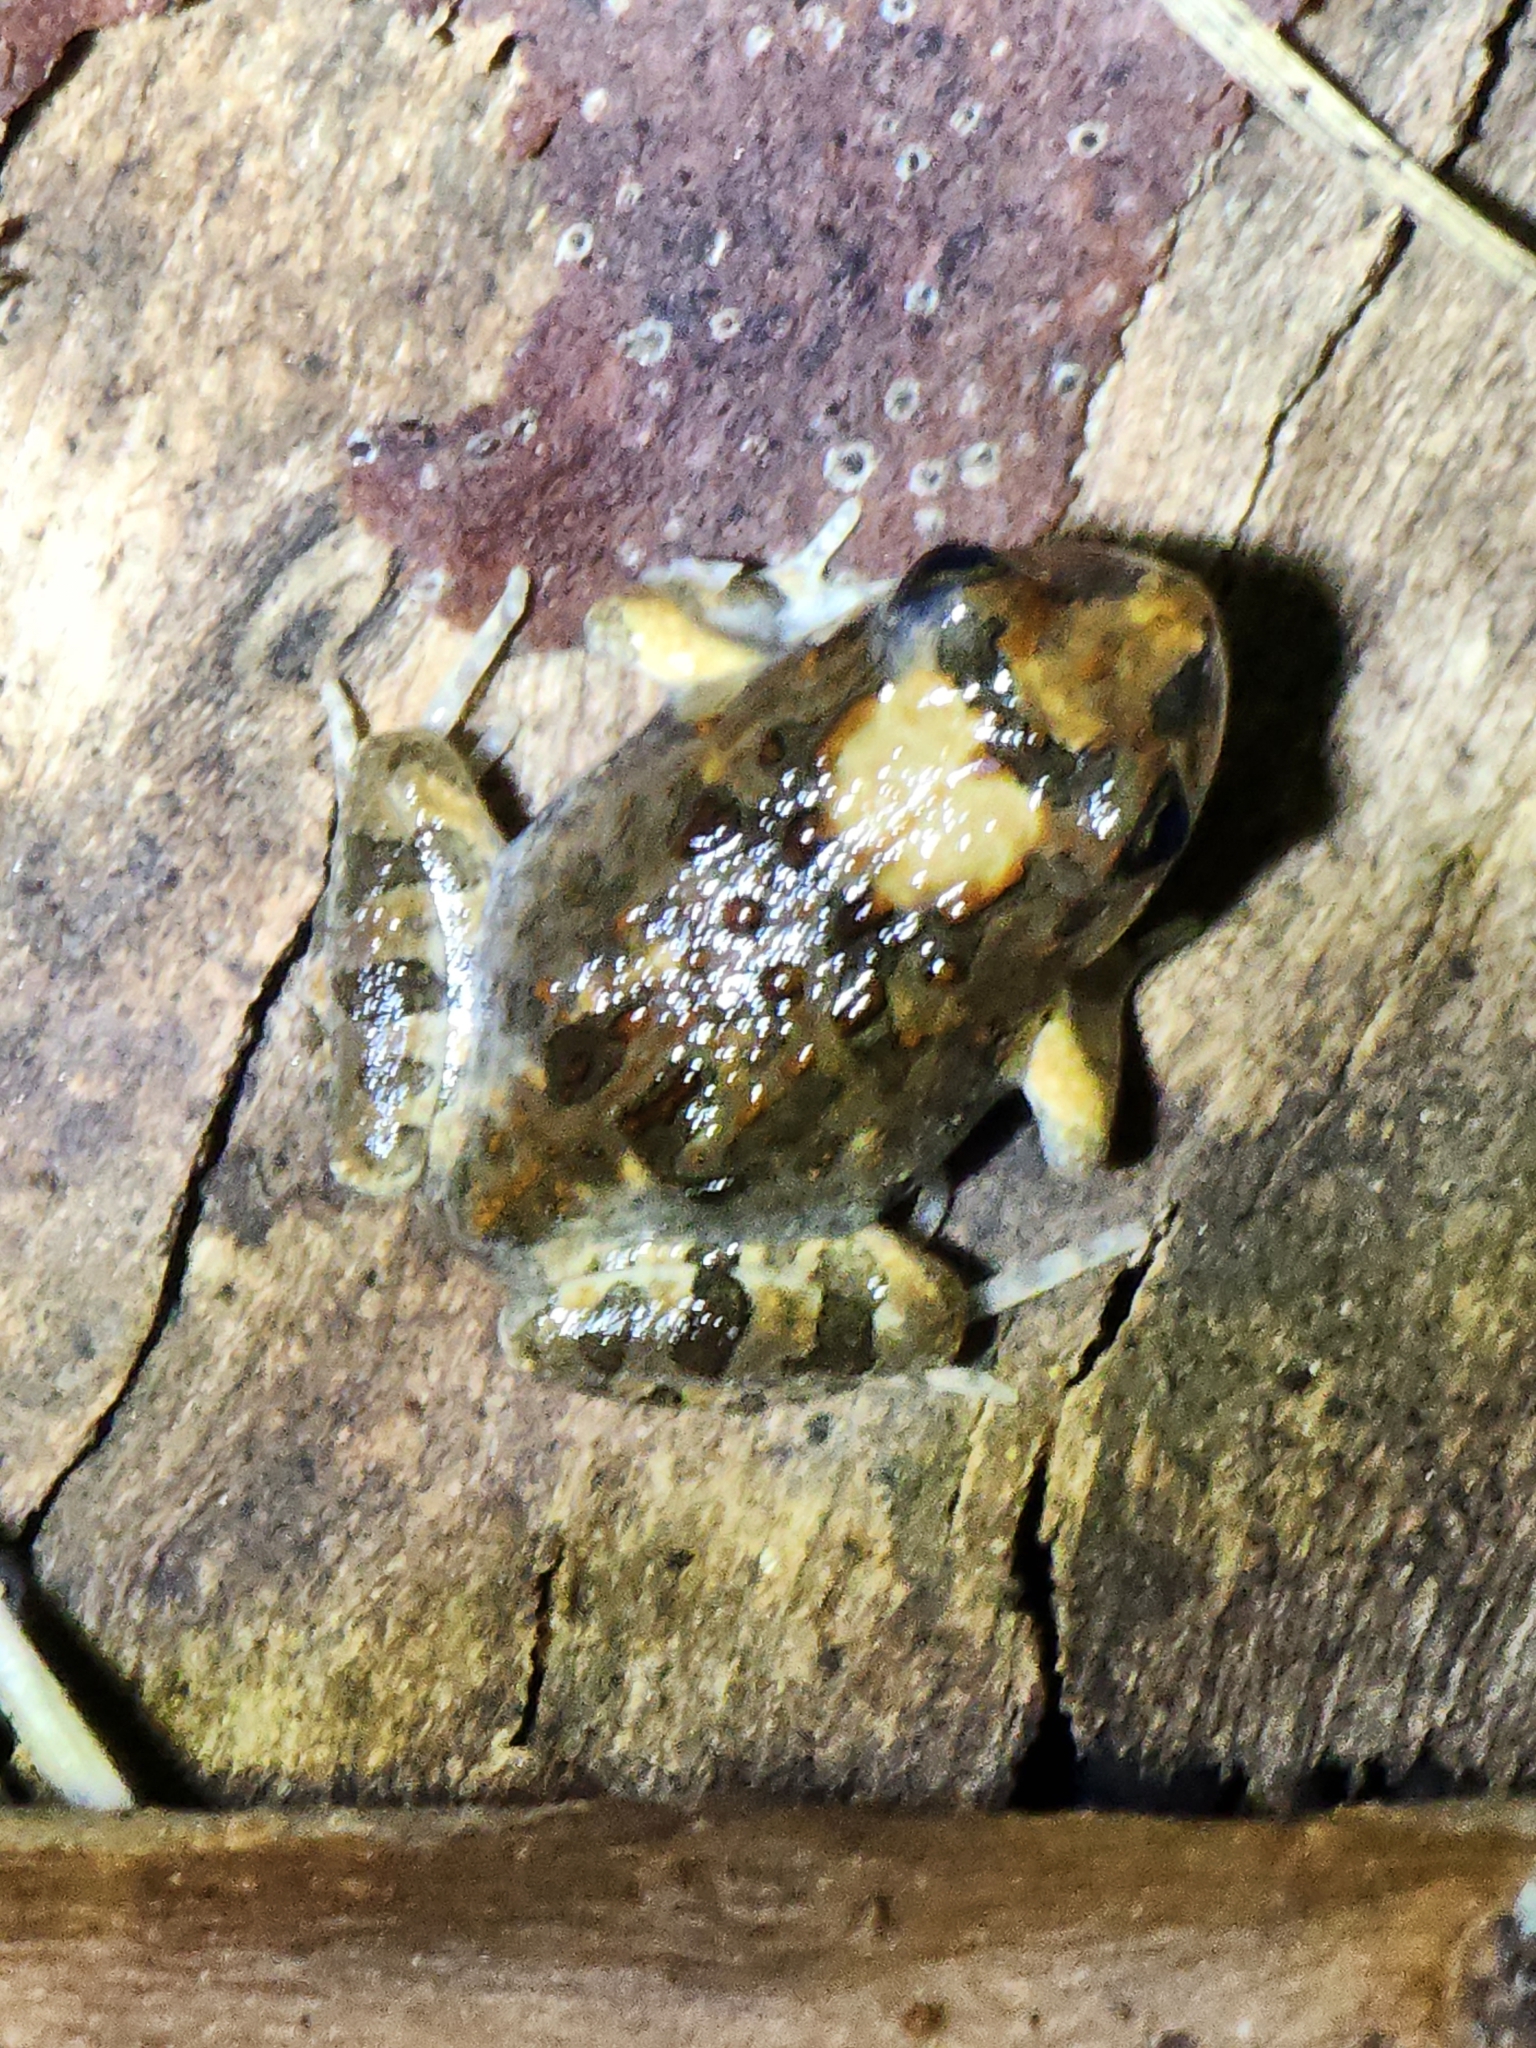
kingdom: Animalia
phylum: Chordata
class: Amphibia
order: Anura
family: Limnodynastidae
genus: Platyplectrum
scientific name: Platyplectrum ornatum
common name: Ornate burrowing frog
